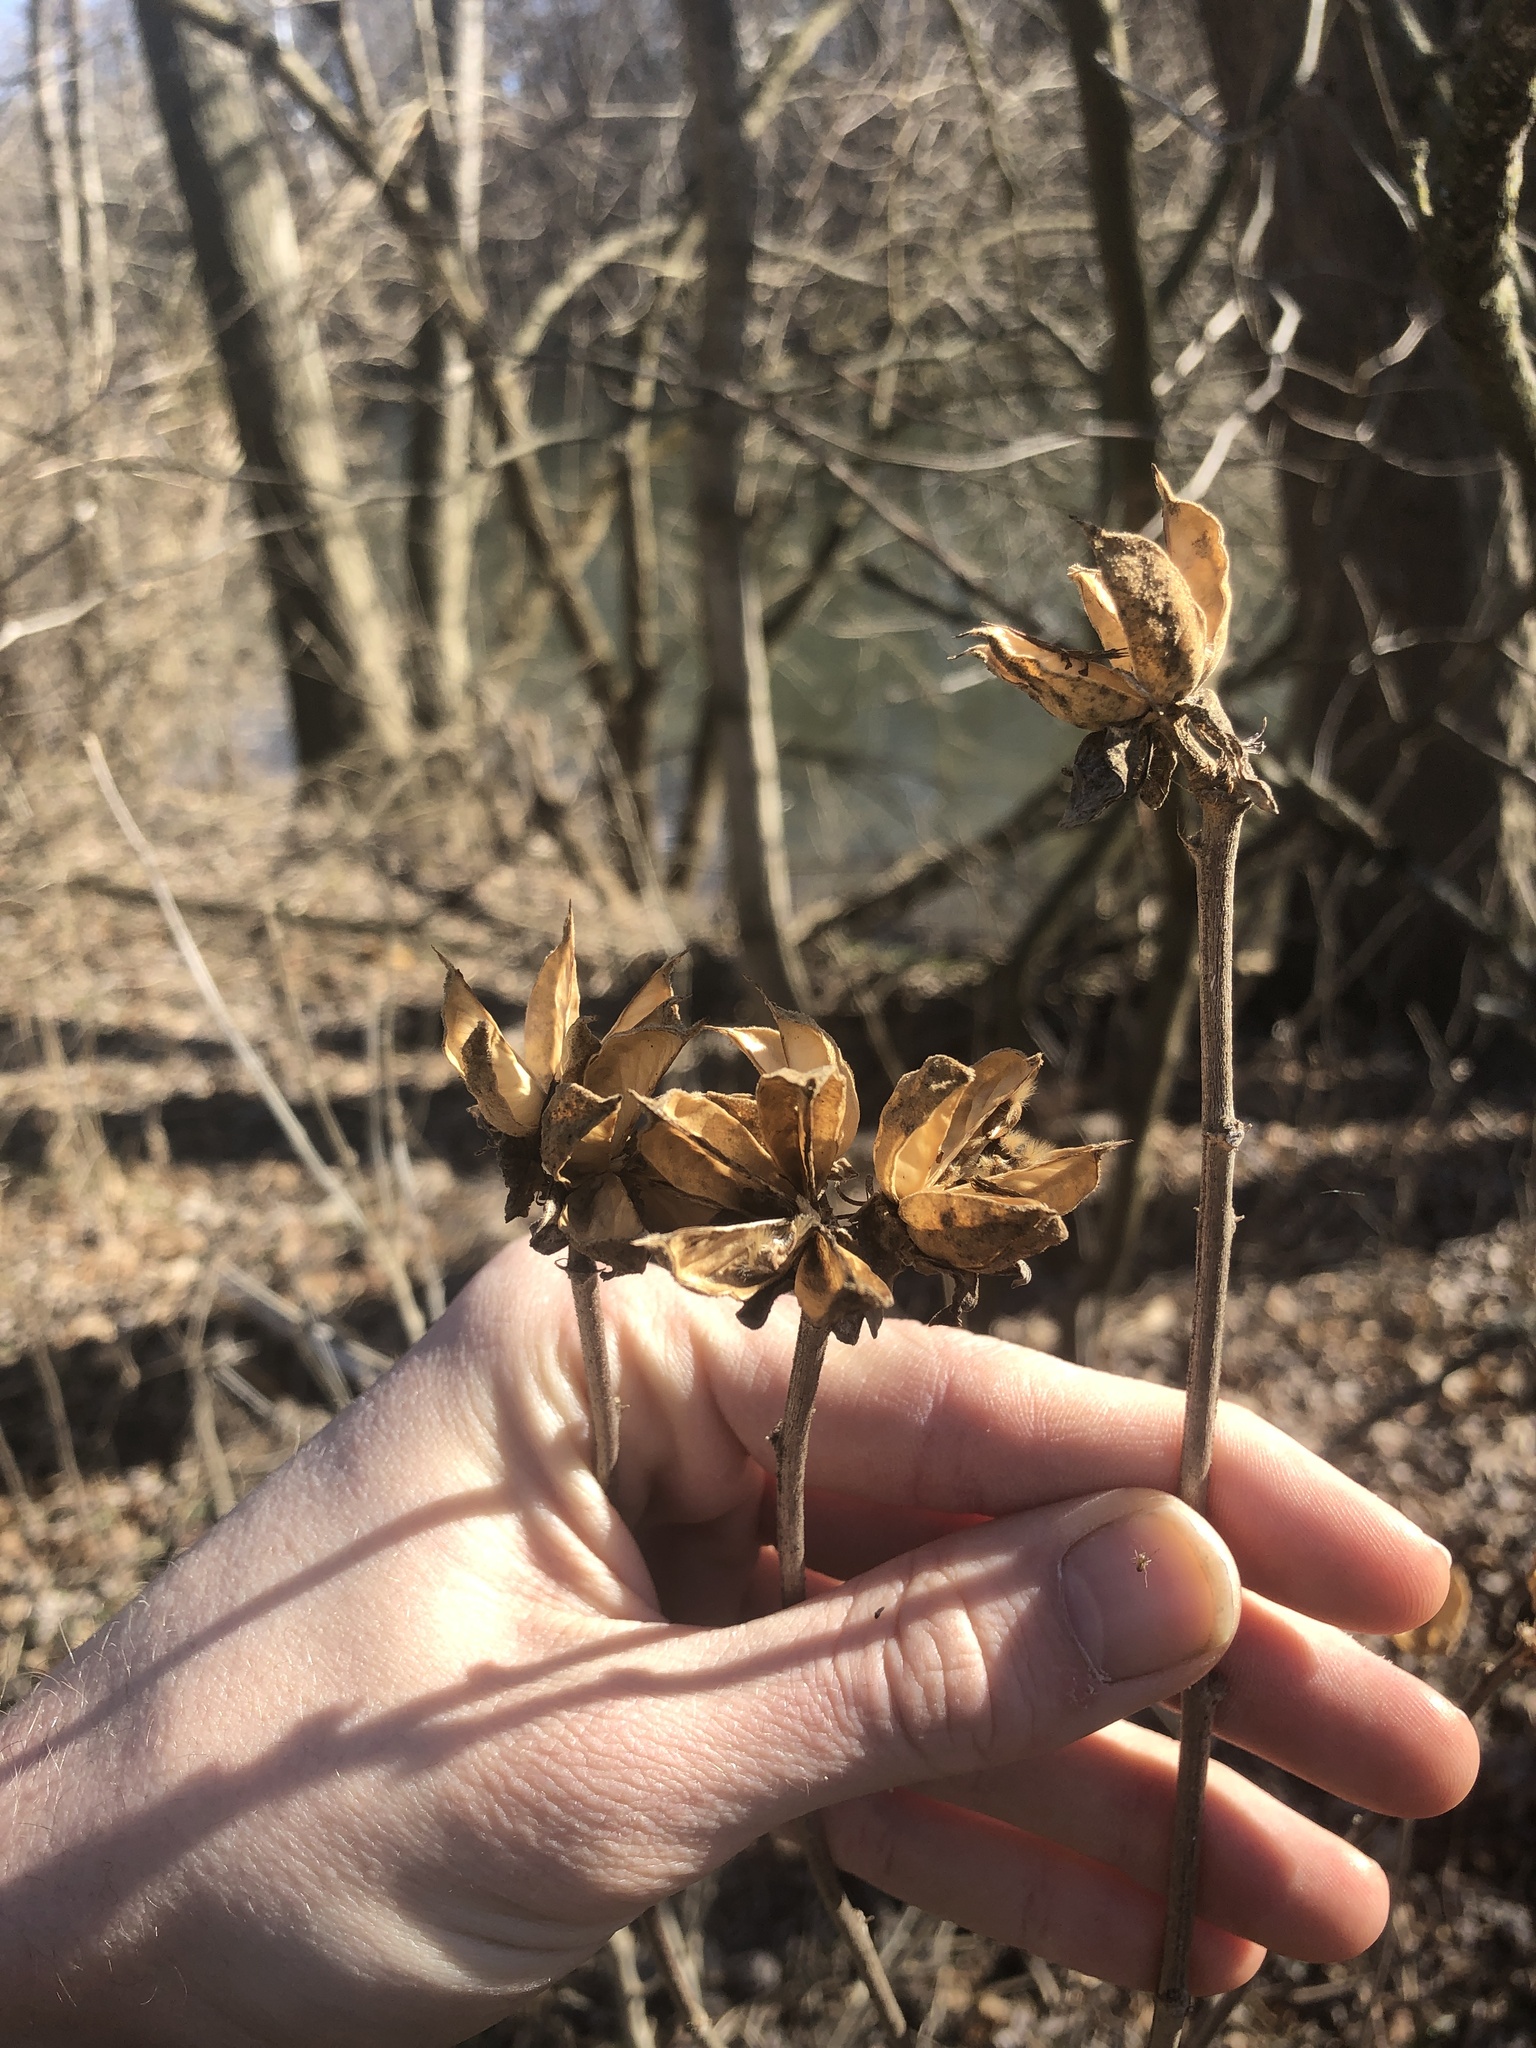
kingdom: Plantae
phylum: Tracheophyta
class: Magnoliopsida
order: Malvales
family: Malvaceae
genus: Hibiscus
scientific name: Hibiscus syriacus
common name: Syrian ketmia
